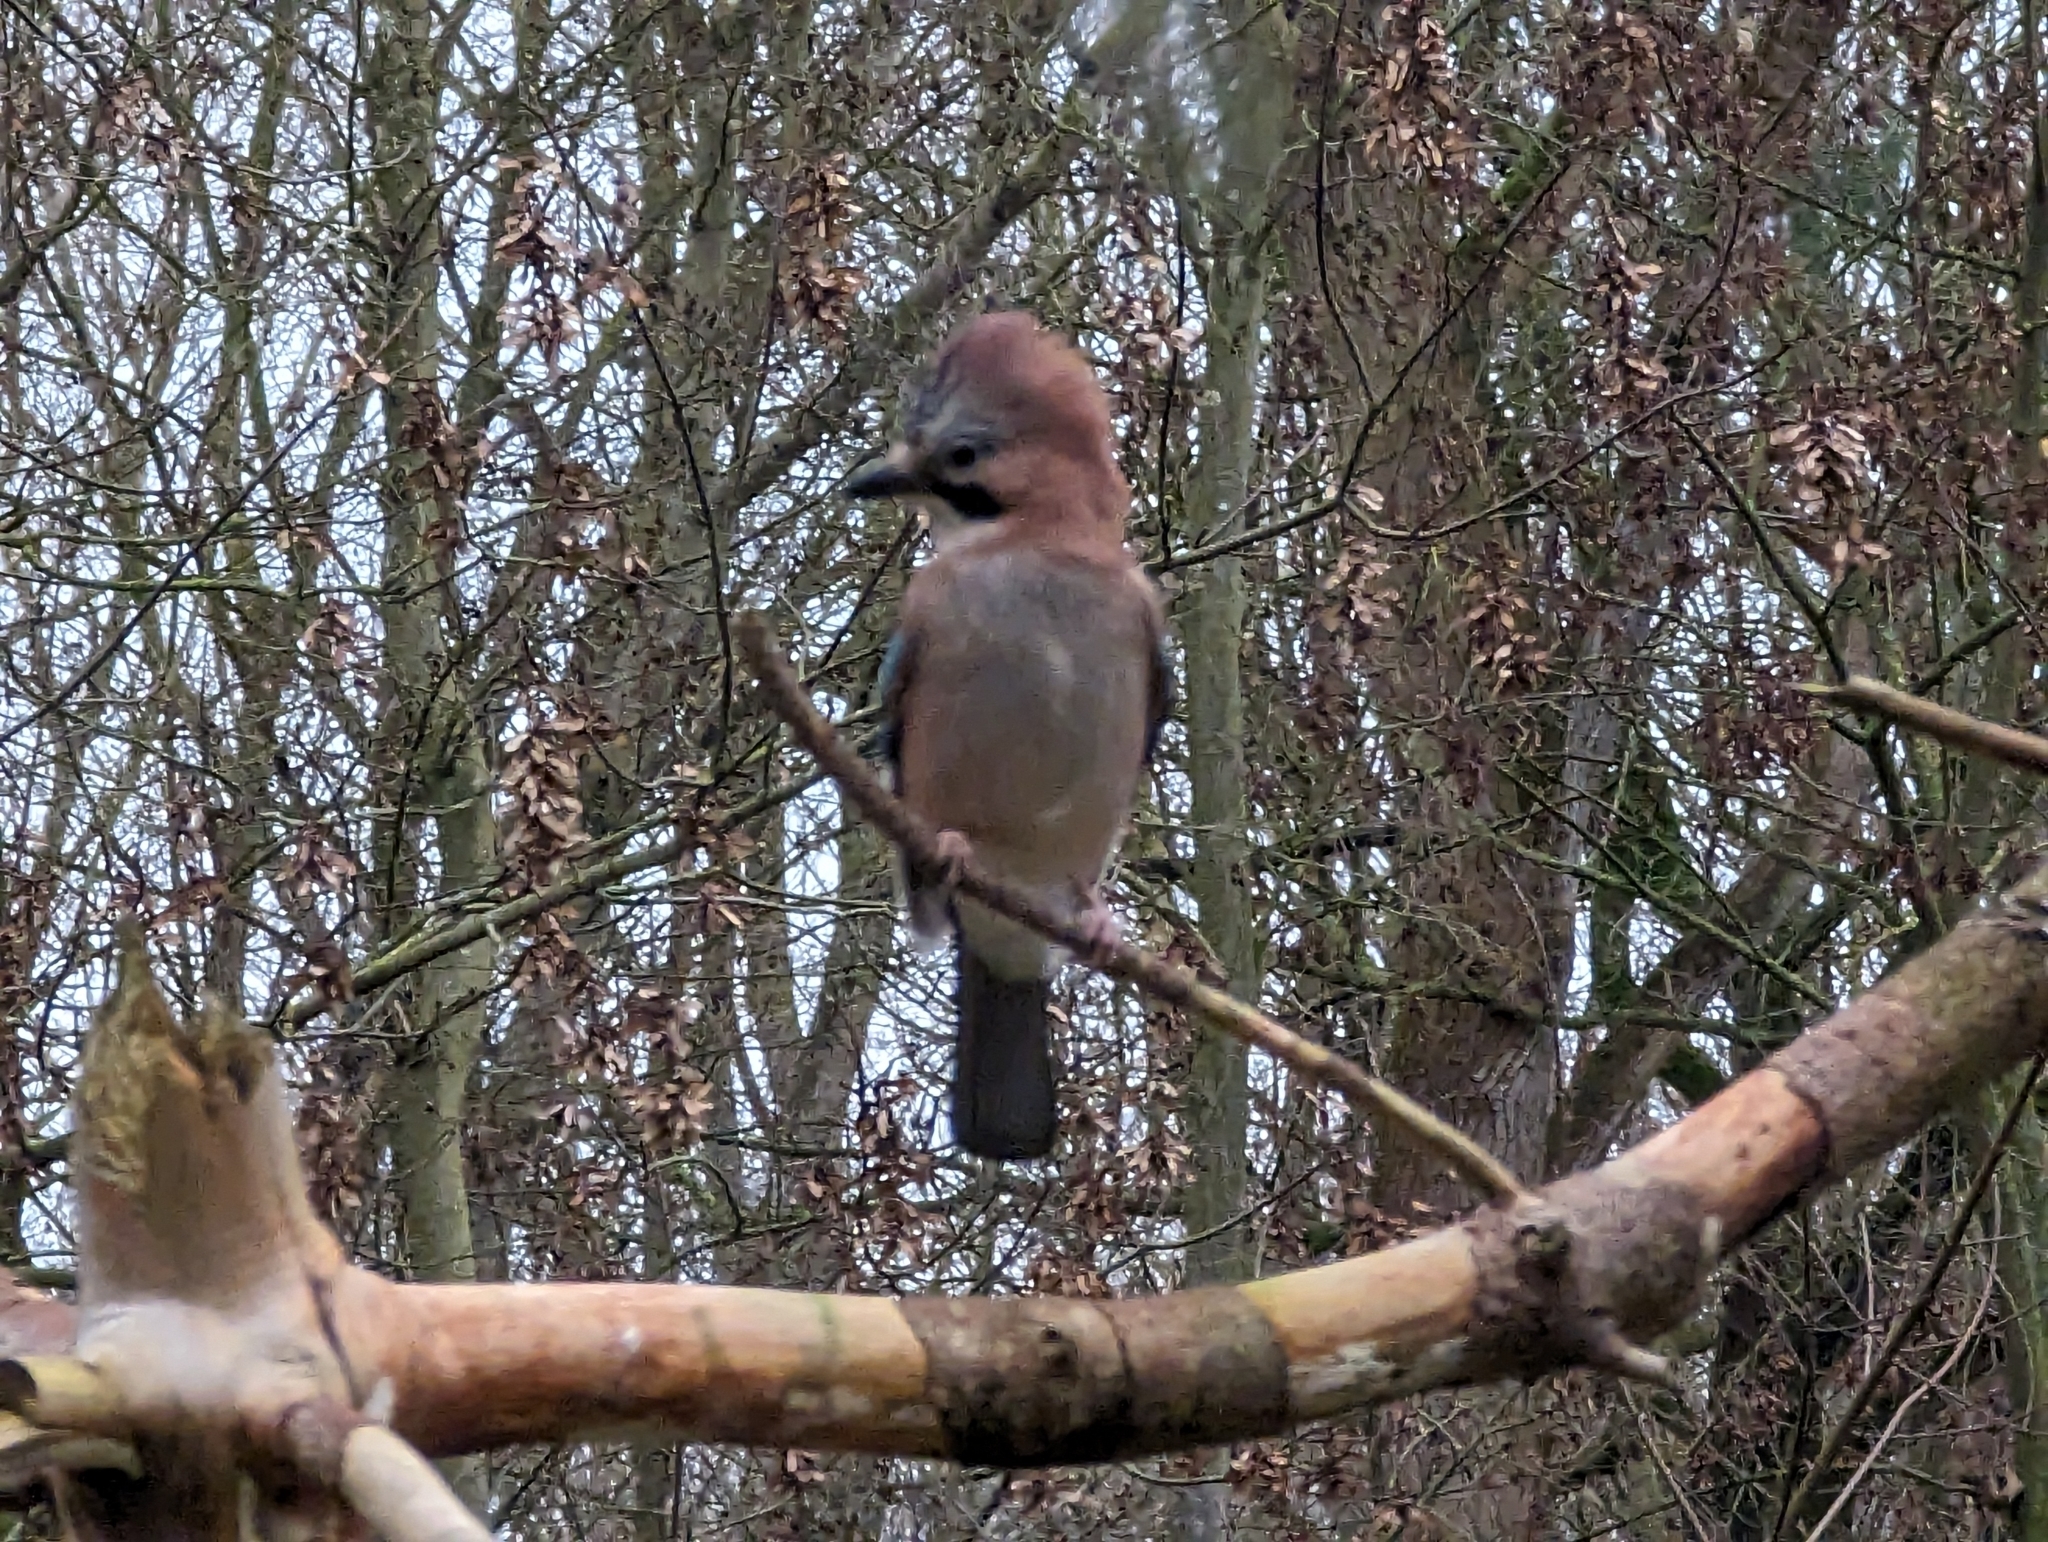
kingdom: Animalia
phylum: Chordata
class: Aves
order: Passeriformes
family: Corvidae
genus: Garrulus
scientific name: Garrulus glandarius
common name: Eurasian jay
